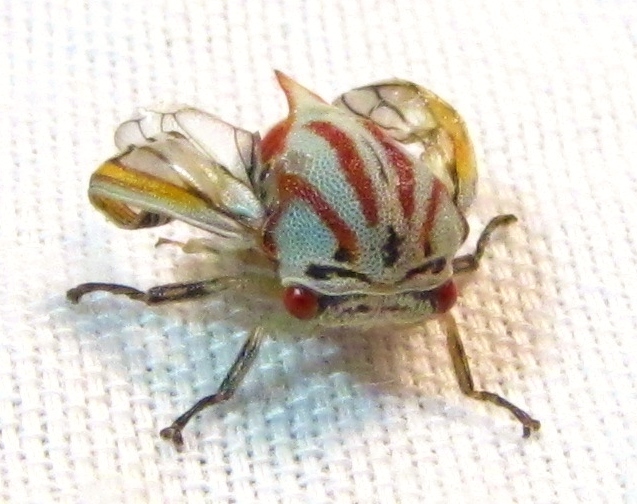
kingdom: Animalia
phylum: Arthropoda
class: Insecta
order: Hemiptera
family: Membracidae
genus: Platycotis
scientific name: Platycotis vittatus
